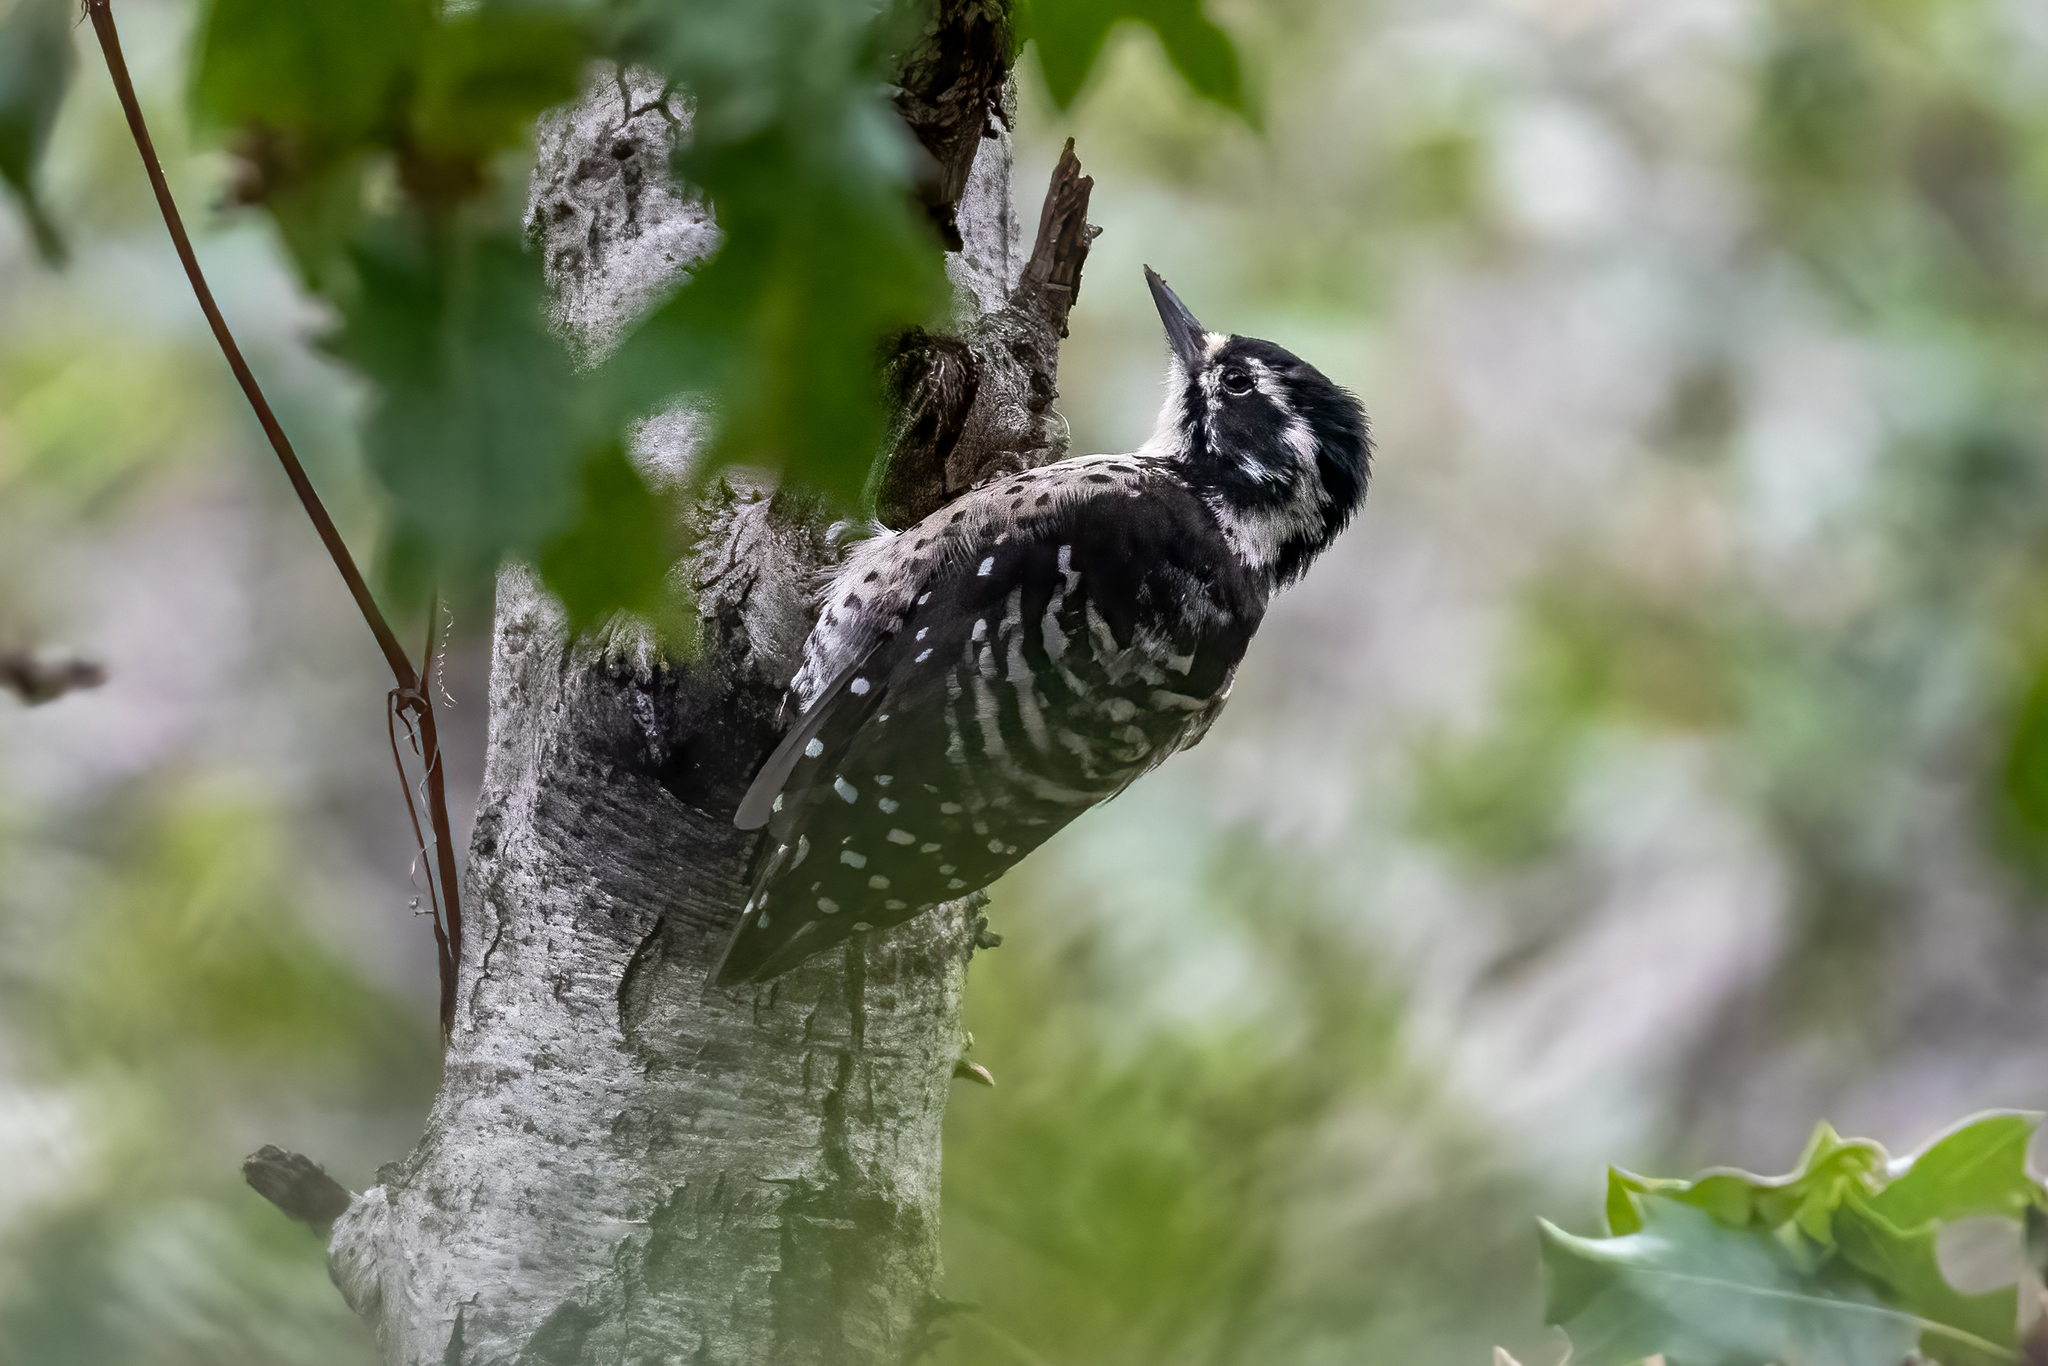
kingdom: Animalia
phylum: Chordata
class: Aves
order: Piciformes
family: Picidae
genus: Dryobates
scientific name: Dryobates nuttallii
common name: Nuttall's woodpecker
